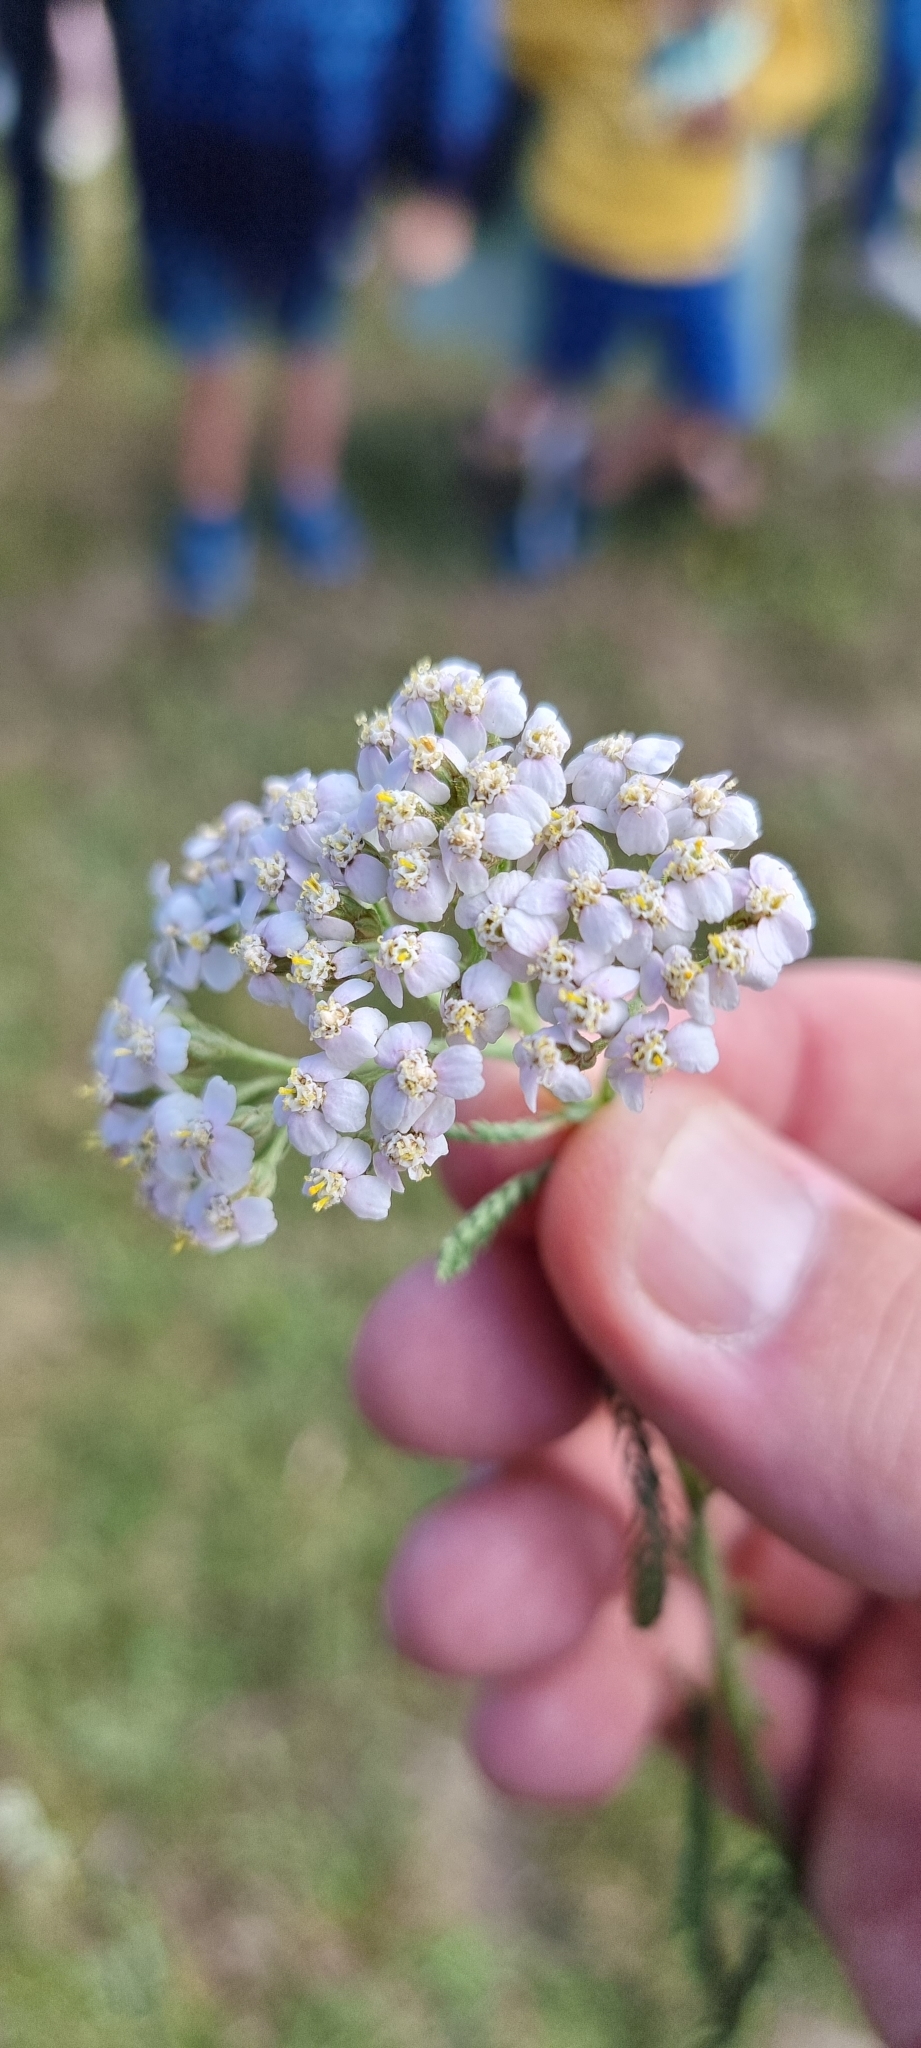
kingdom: Plantae
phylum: Tracheophyta
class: Magnoliopsida
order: Asterales
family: Asteraceae
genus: Achillea
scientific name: Achillea millefolium
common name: Yarrow
